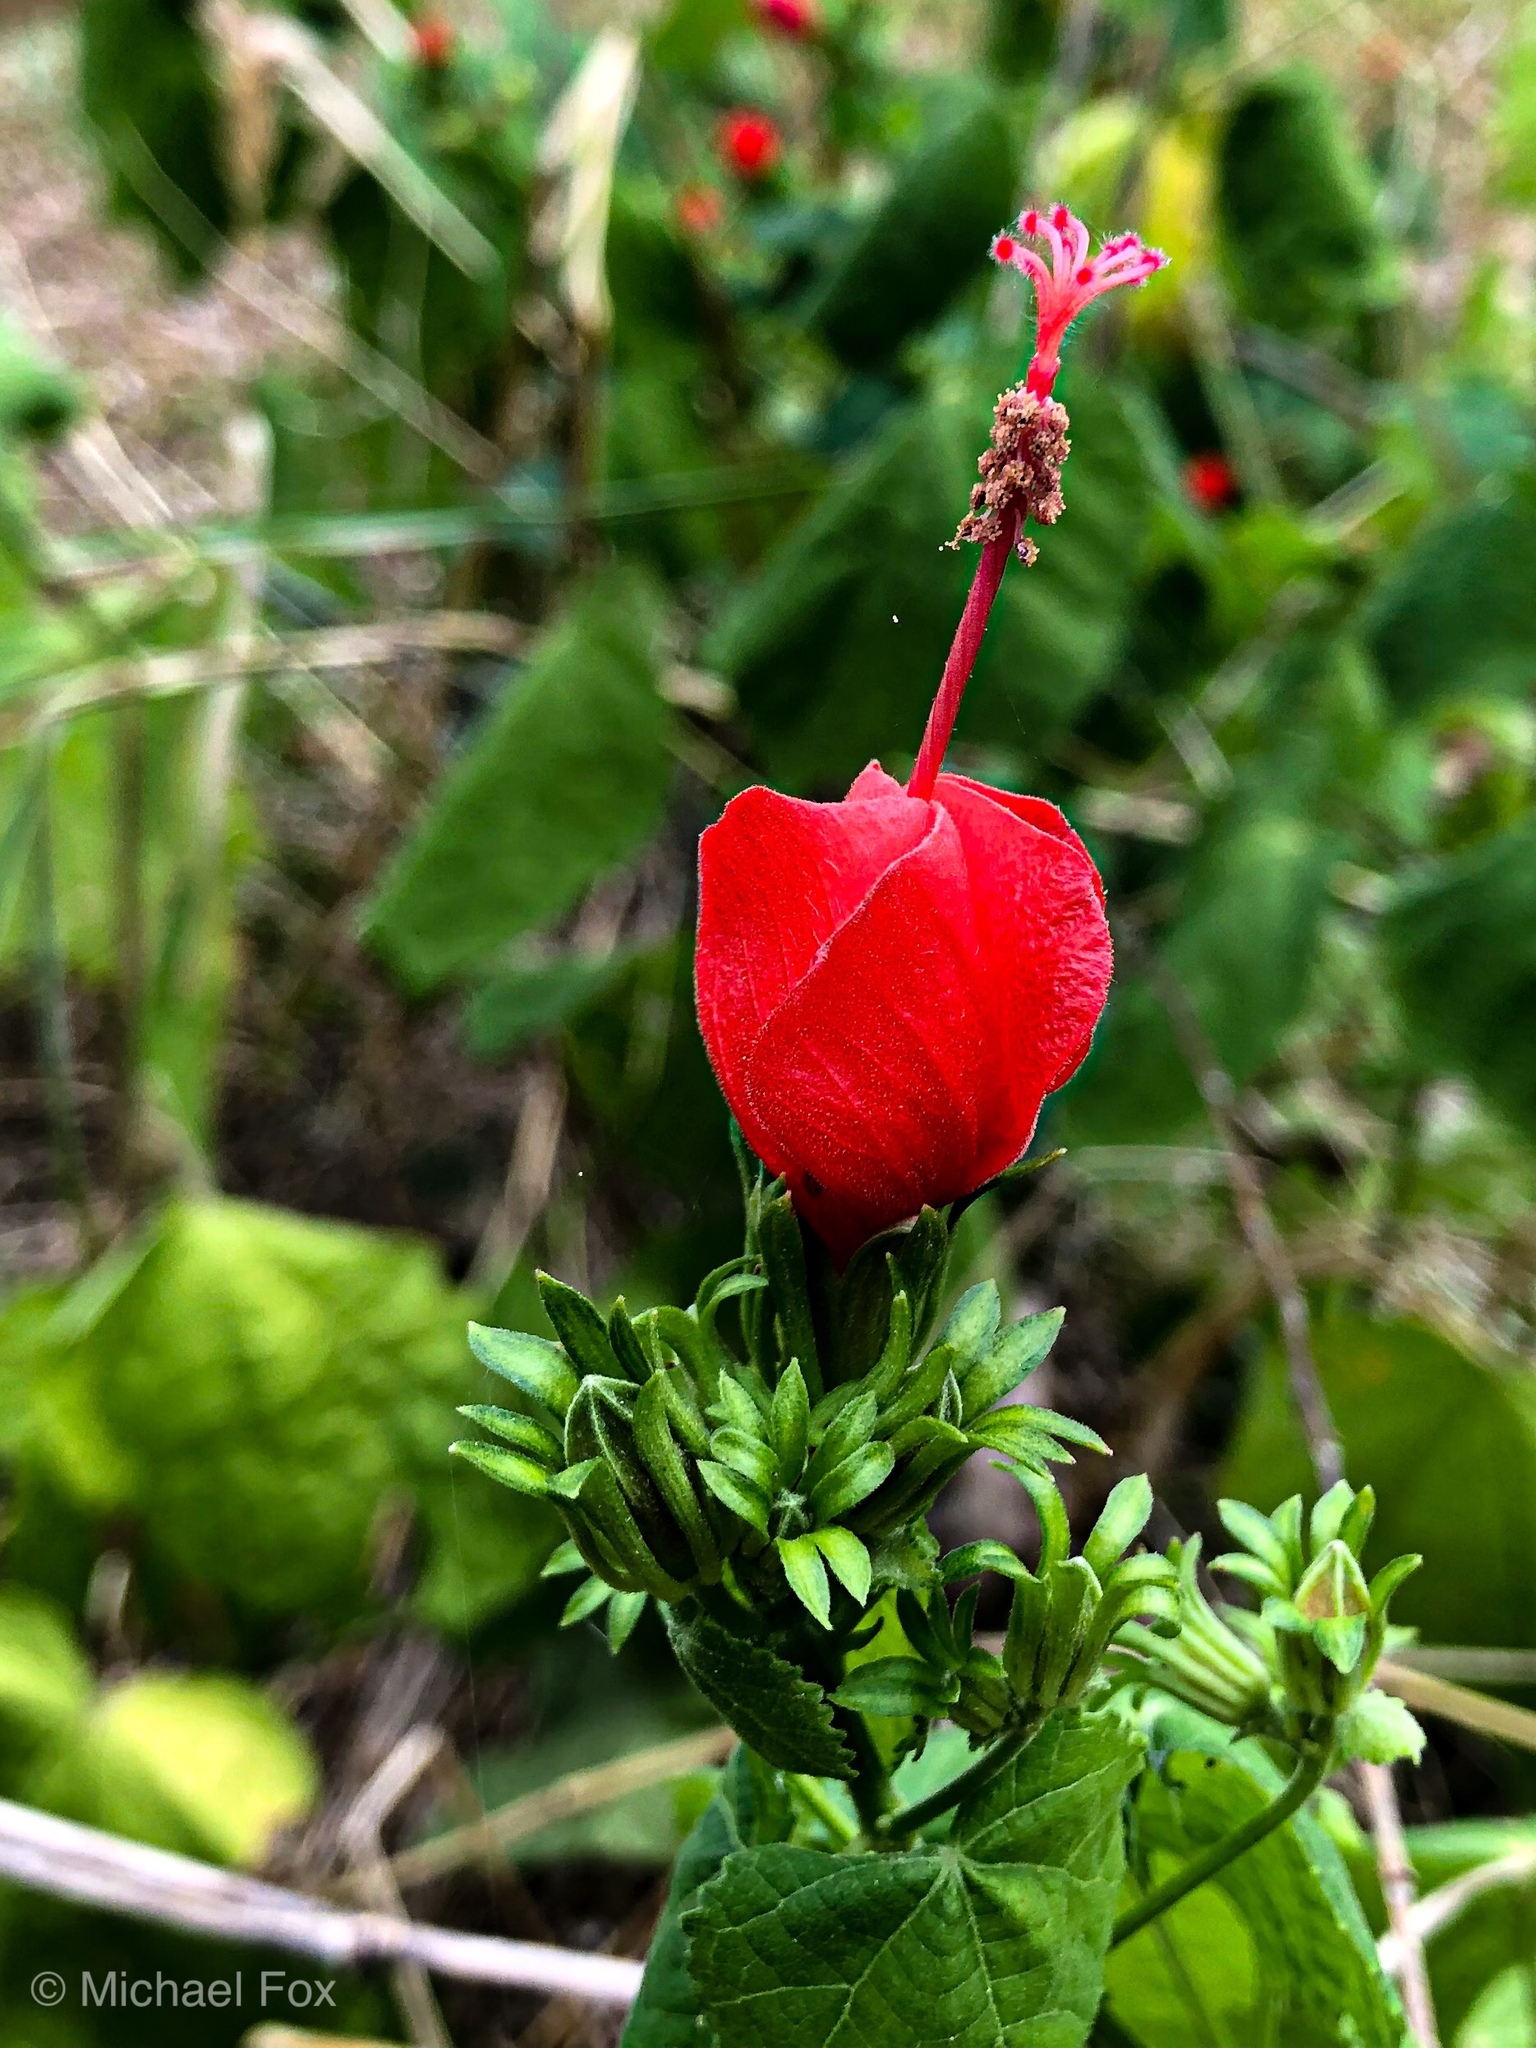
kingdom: Plantae
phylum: Tracheophyta
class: Magnoliopsida
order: Malvales
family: Malvaceae
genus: Malvaviscus
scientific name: Malvaviscus arboreus
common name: Wax mallow
